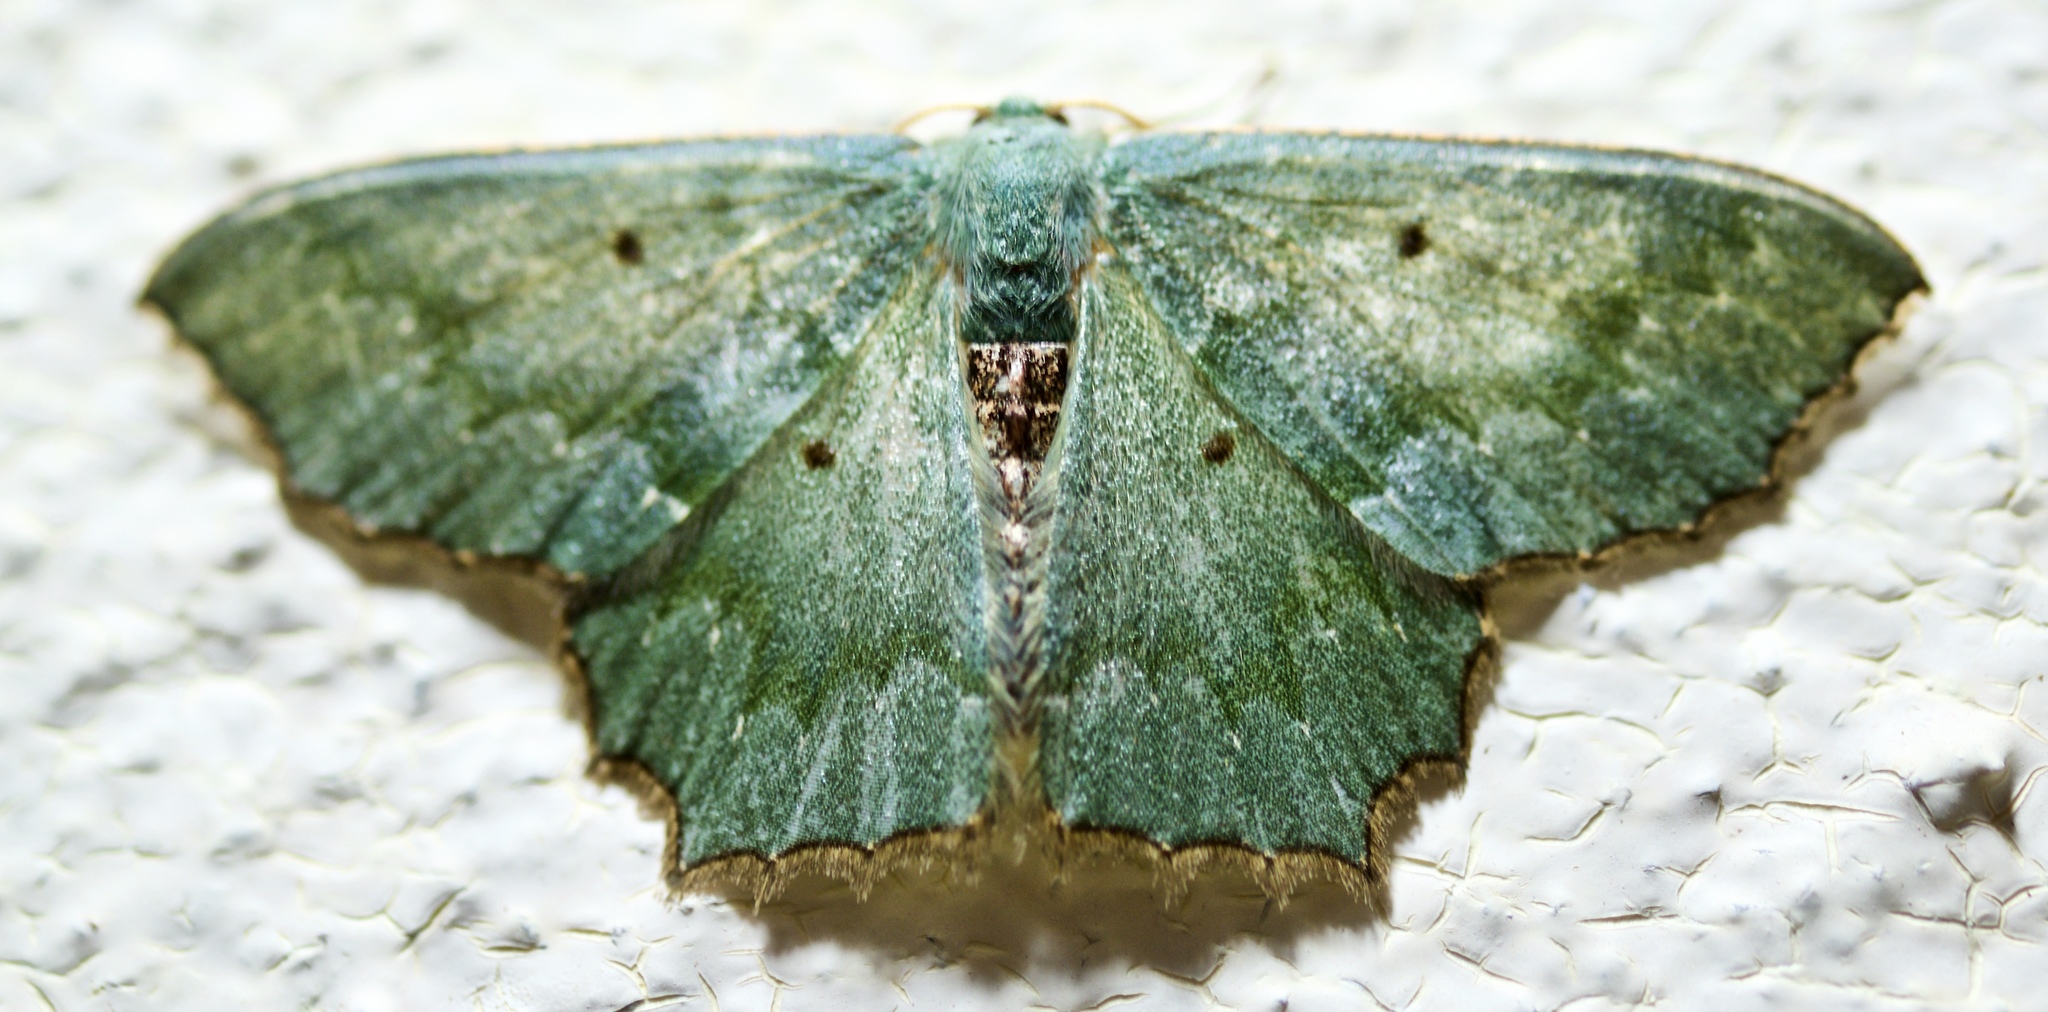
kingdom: Animalia
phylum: Arthropoda
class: Insecta
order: Lepidoptera
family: Geometridae
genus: Episothalma
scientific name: Episothalma robustaria
